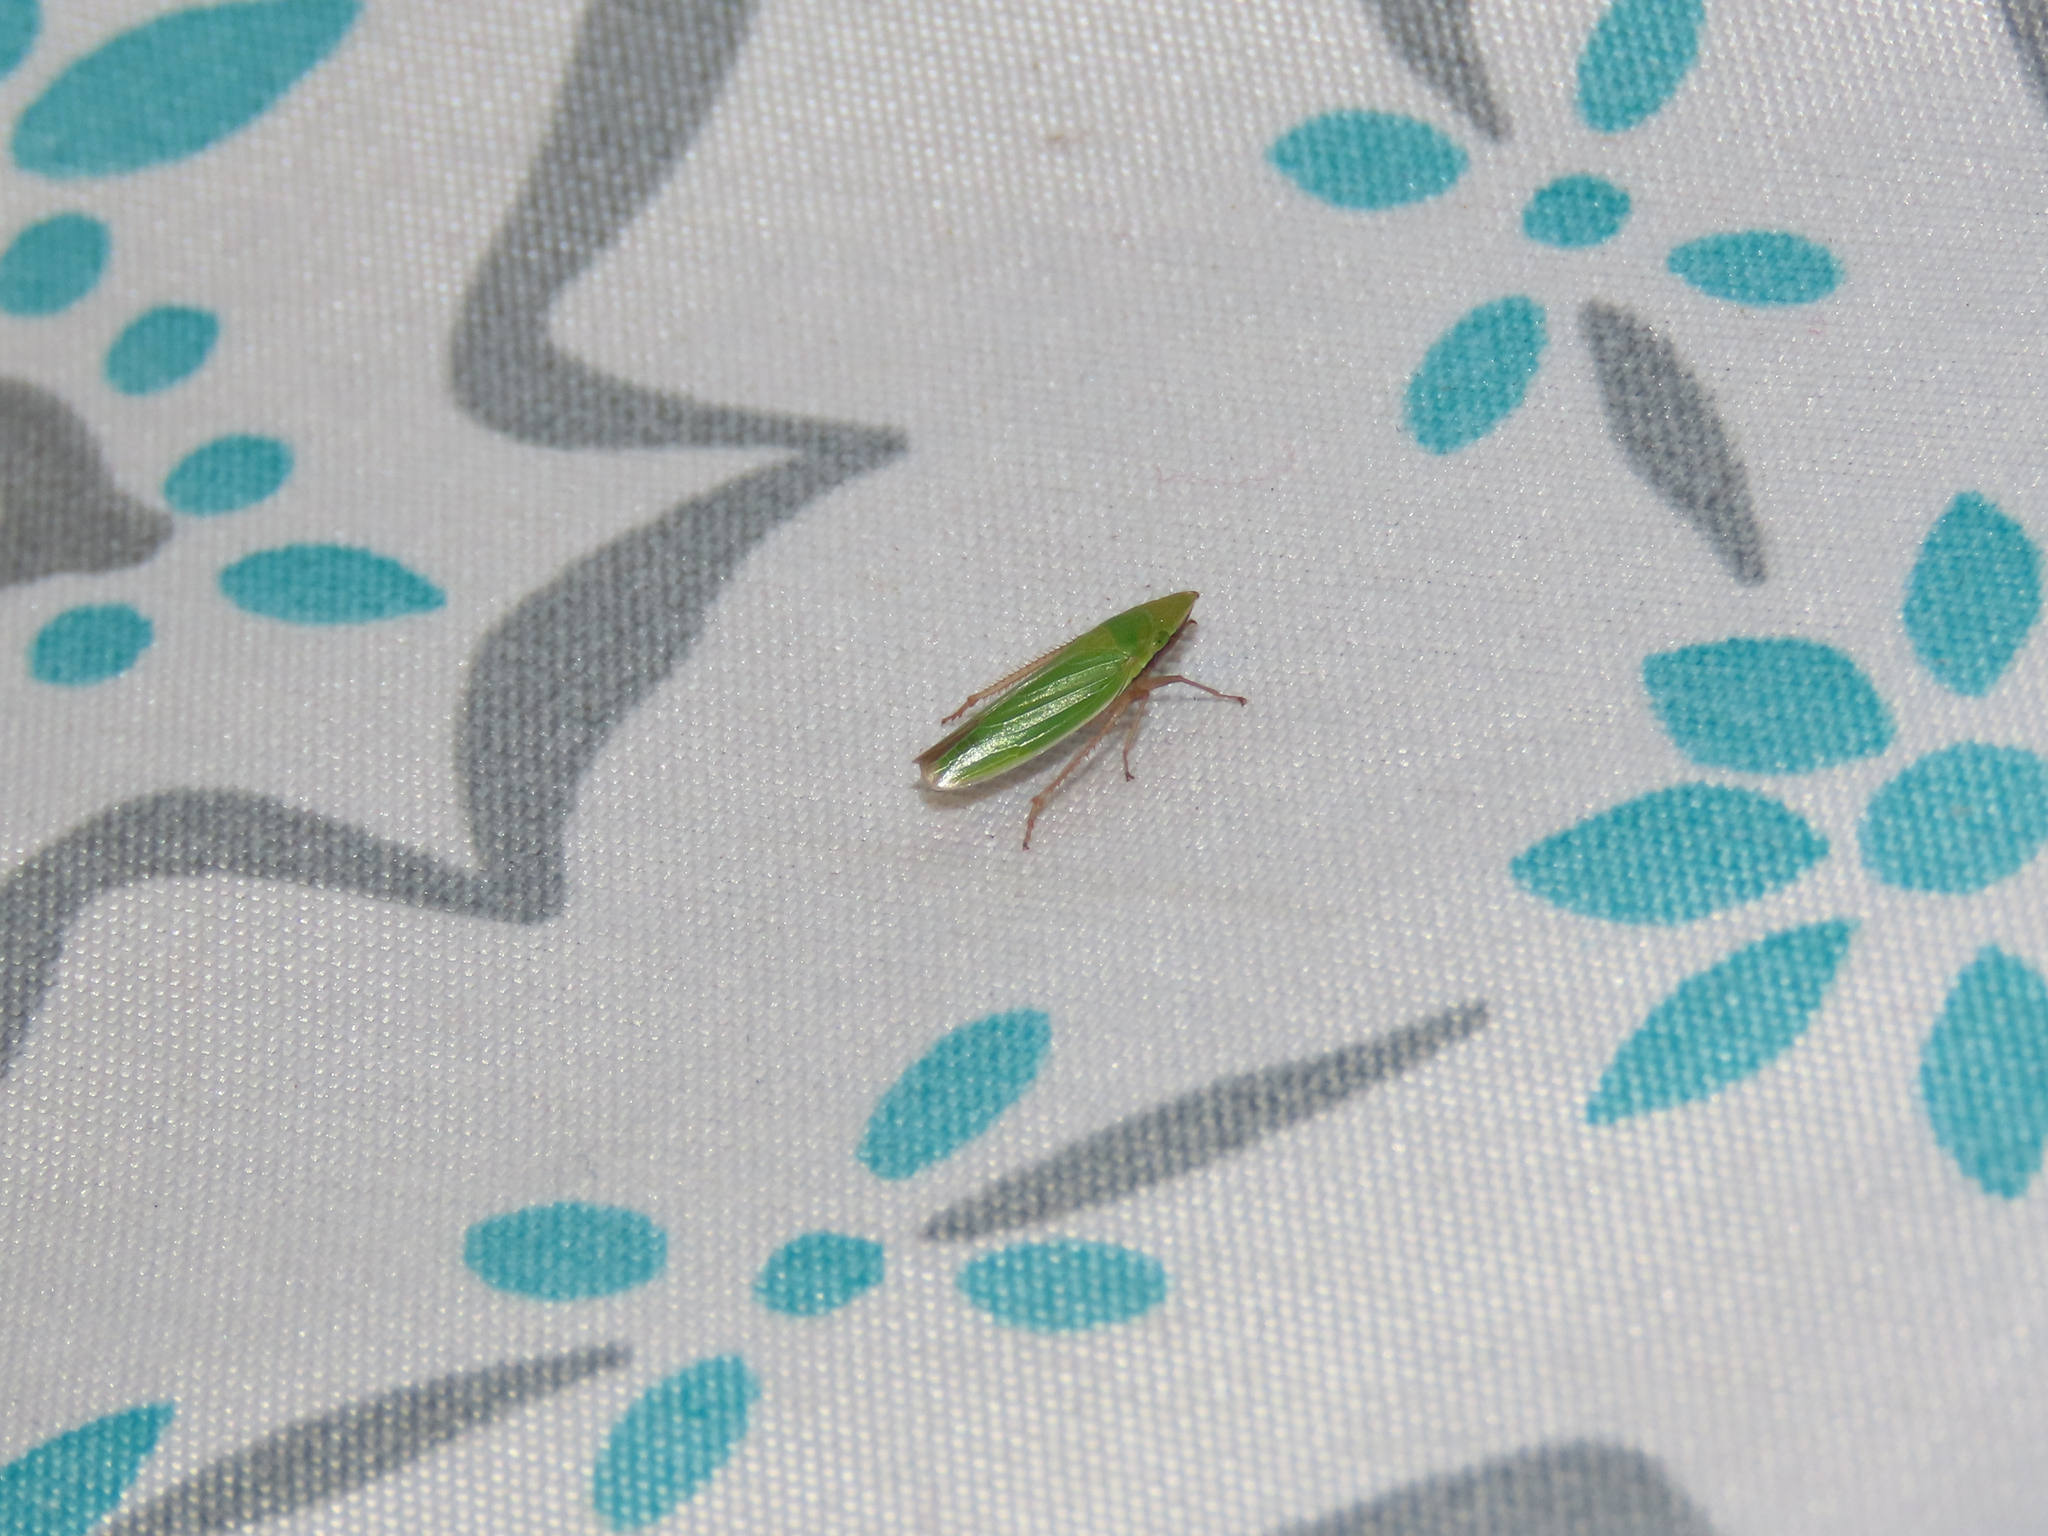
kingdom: Animalia
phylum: Arthropoda
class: Insecta
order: Hemiptera
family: Cicadellidae
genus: Draeculacephala
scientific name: Draeculacephala antica
